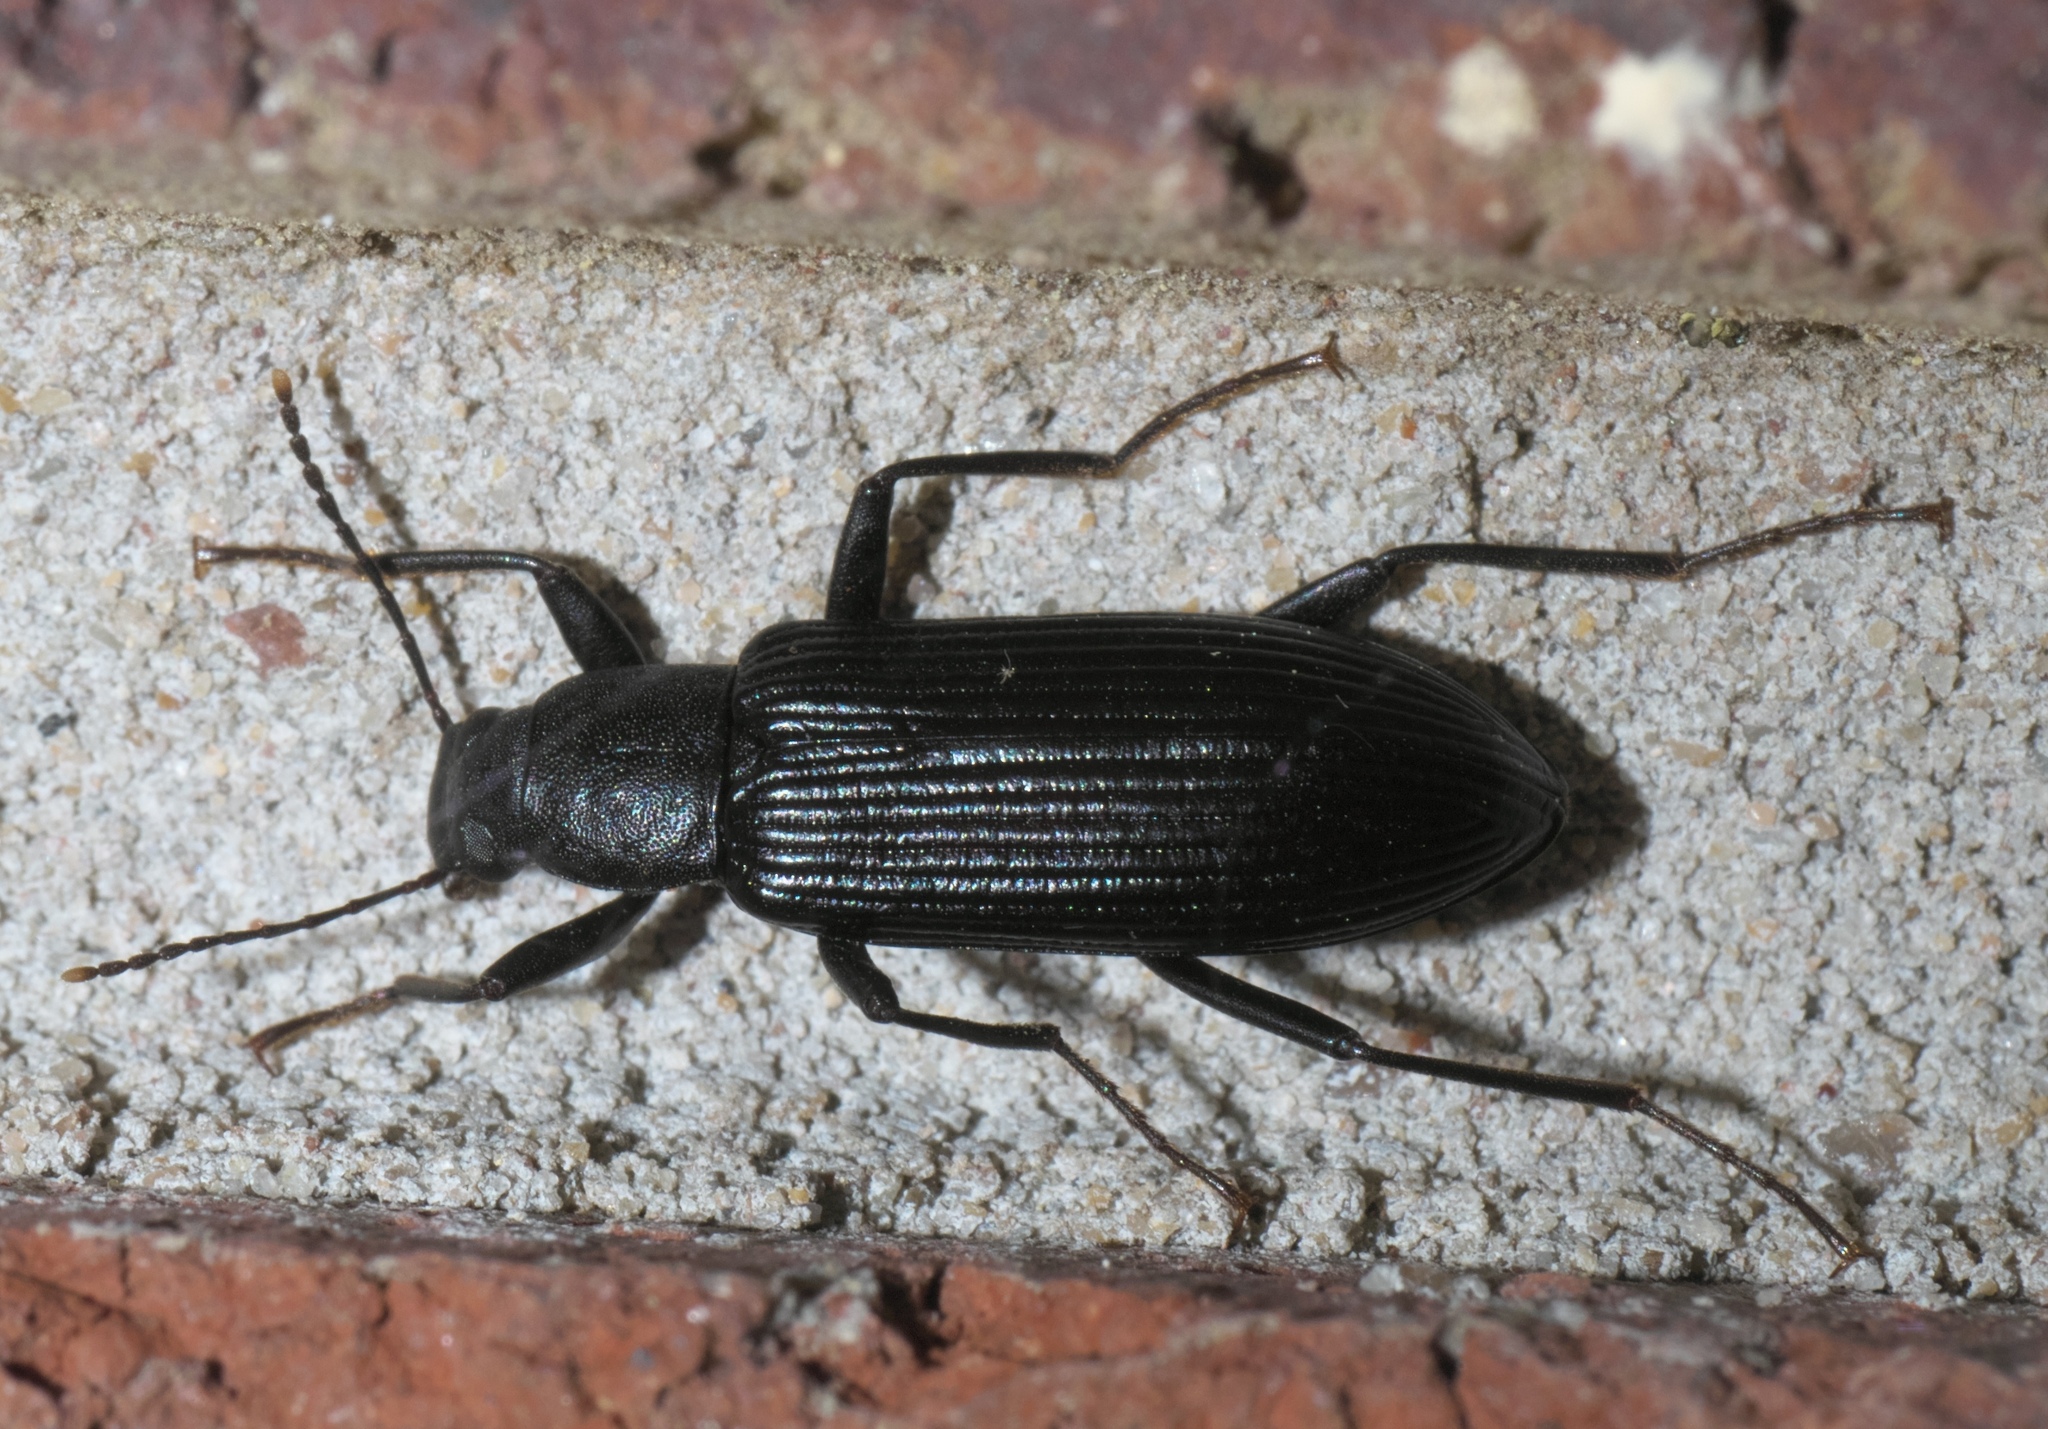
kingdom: Animalia
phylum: Arthropoda
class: Insecta
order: Coleoptera
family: Tenebrionidae
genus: Strongylium
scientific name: Strongylium tenuicolle
